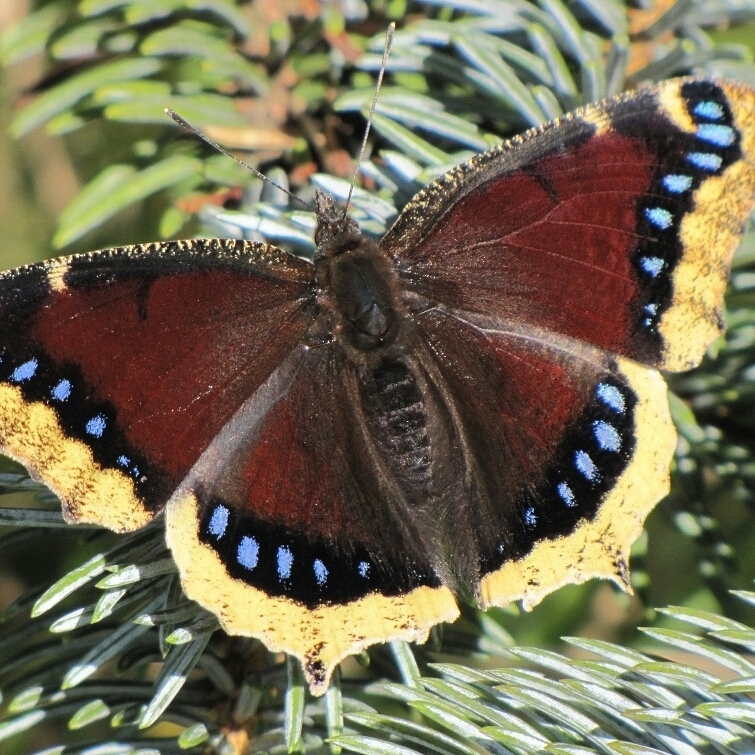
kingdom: Animalia
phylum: Arthropoda
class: Insecta
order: Lepidoptera
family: Nymphalidae
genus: Nymphalis
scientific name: Nymphalis antiopa
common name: Camberwell beauty
